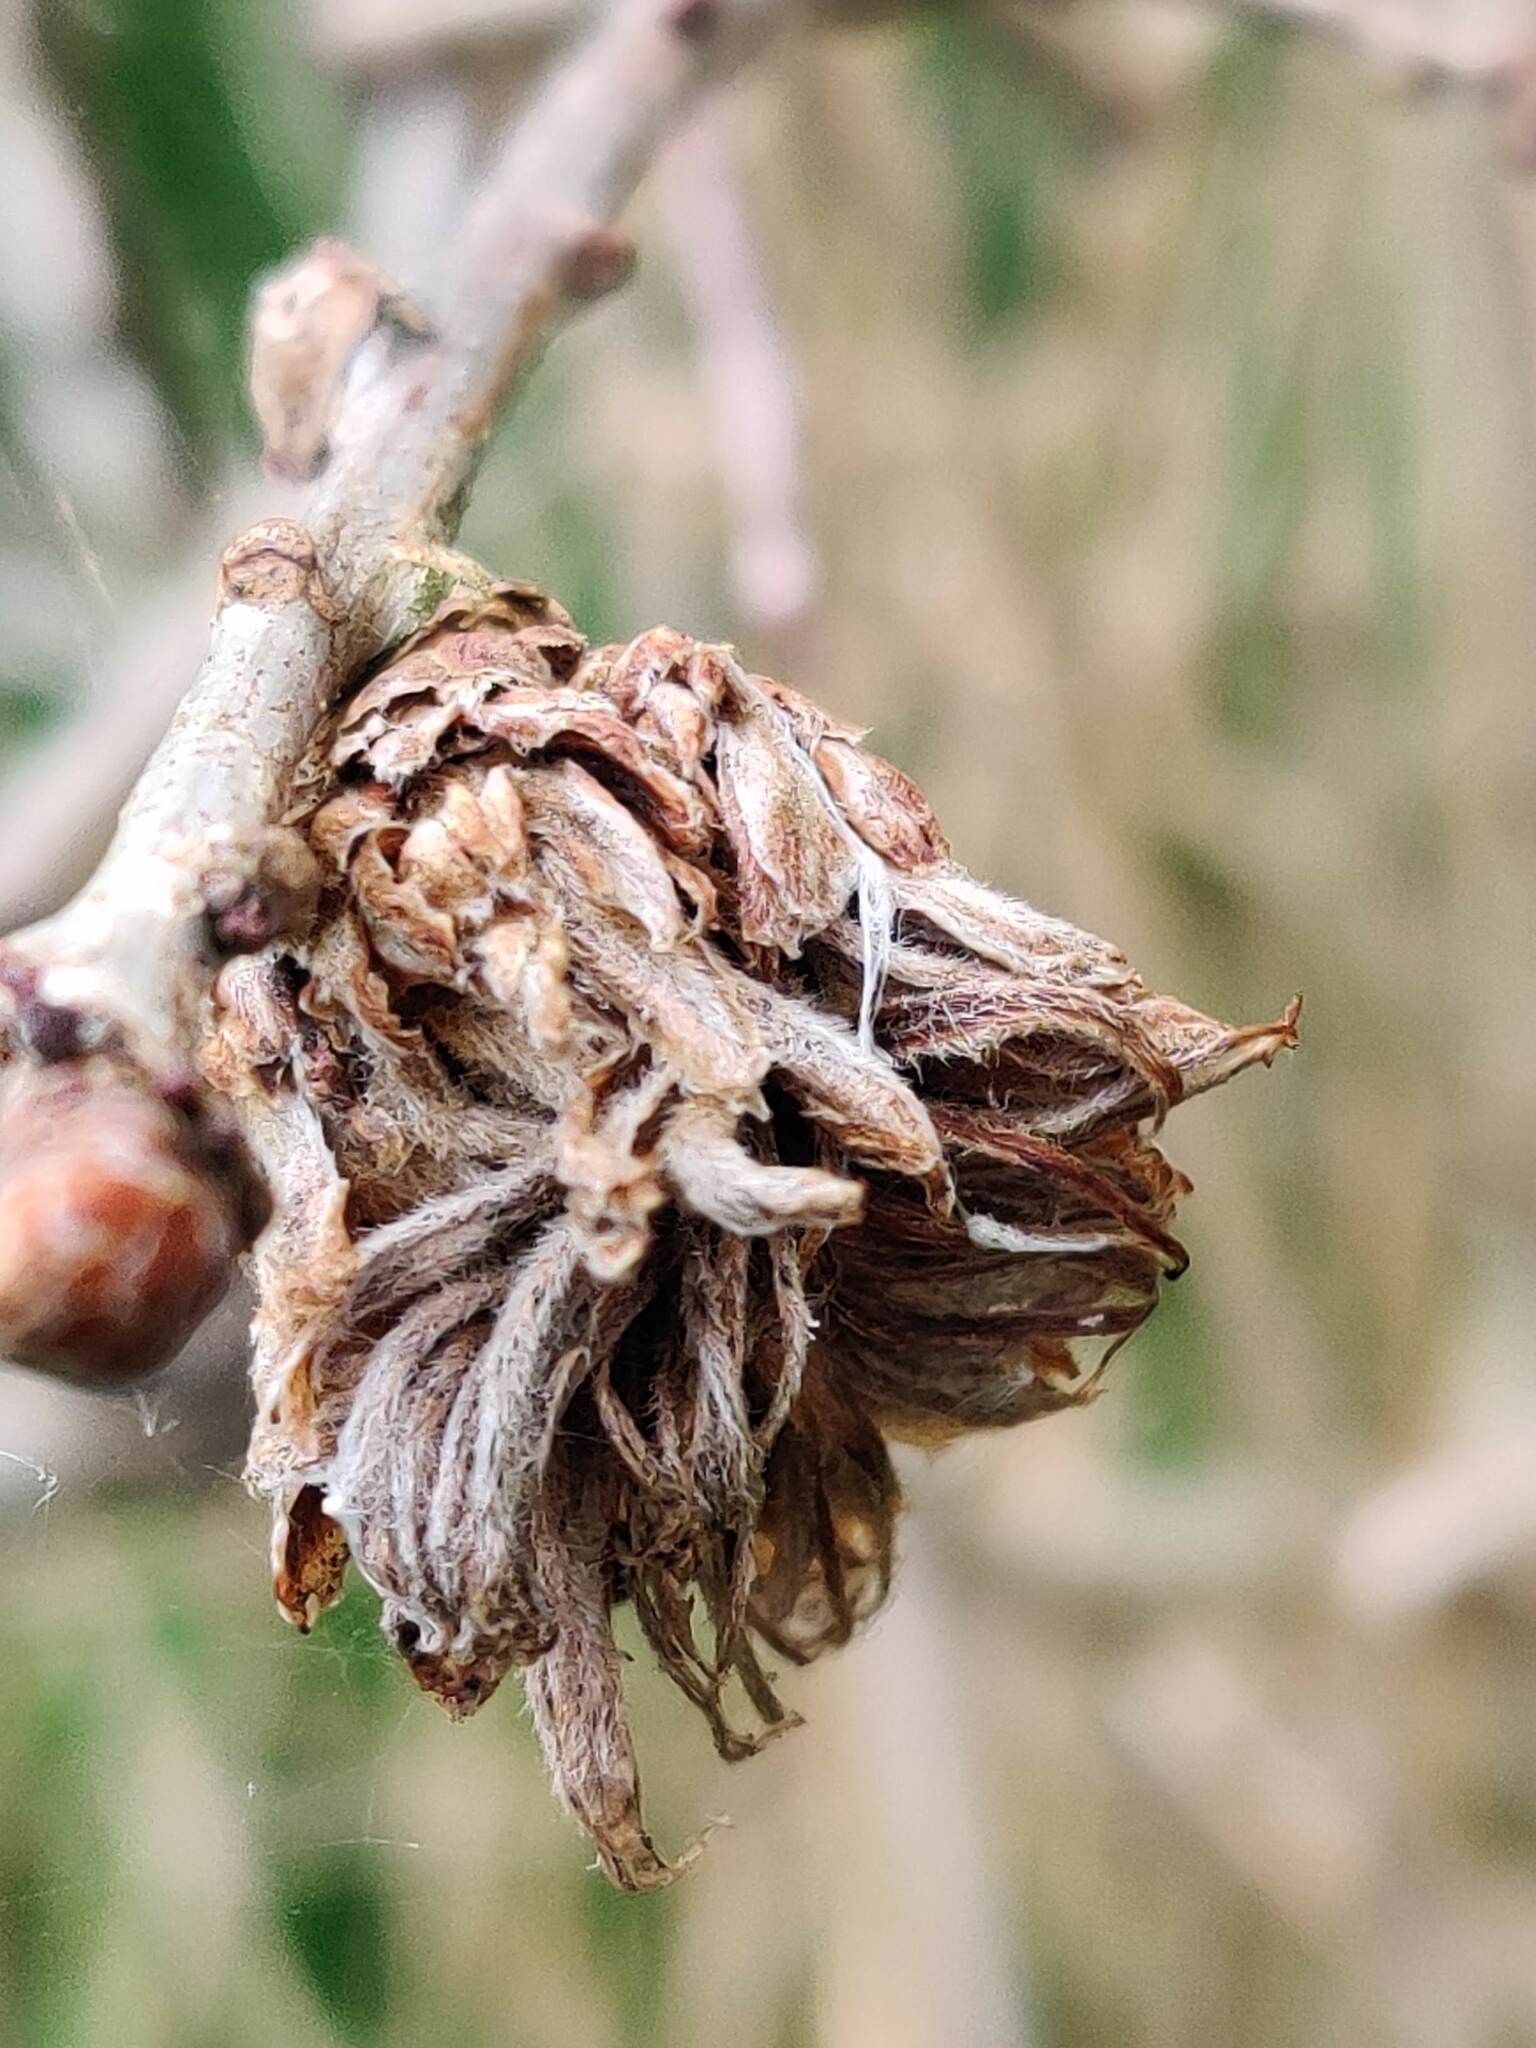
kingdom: Animalia
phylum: Arthropoda
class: Insecta
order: Hymenoptera
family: Cynipidae
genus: Andricus
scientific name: Andricus foecundatrix
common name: Artichoke gall
